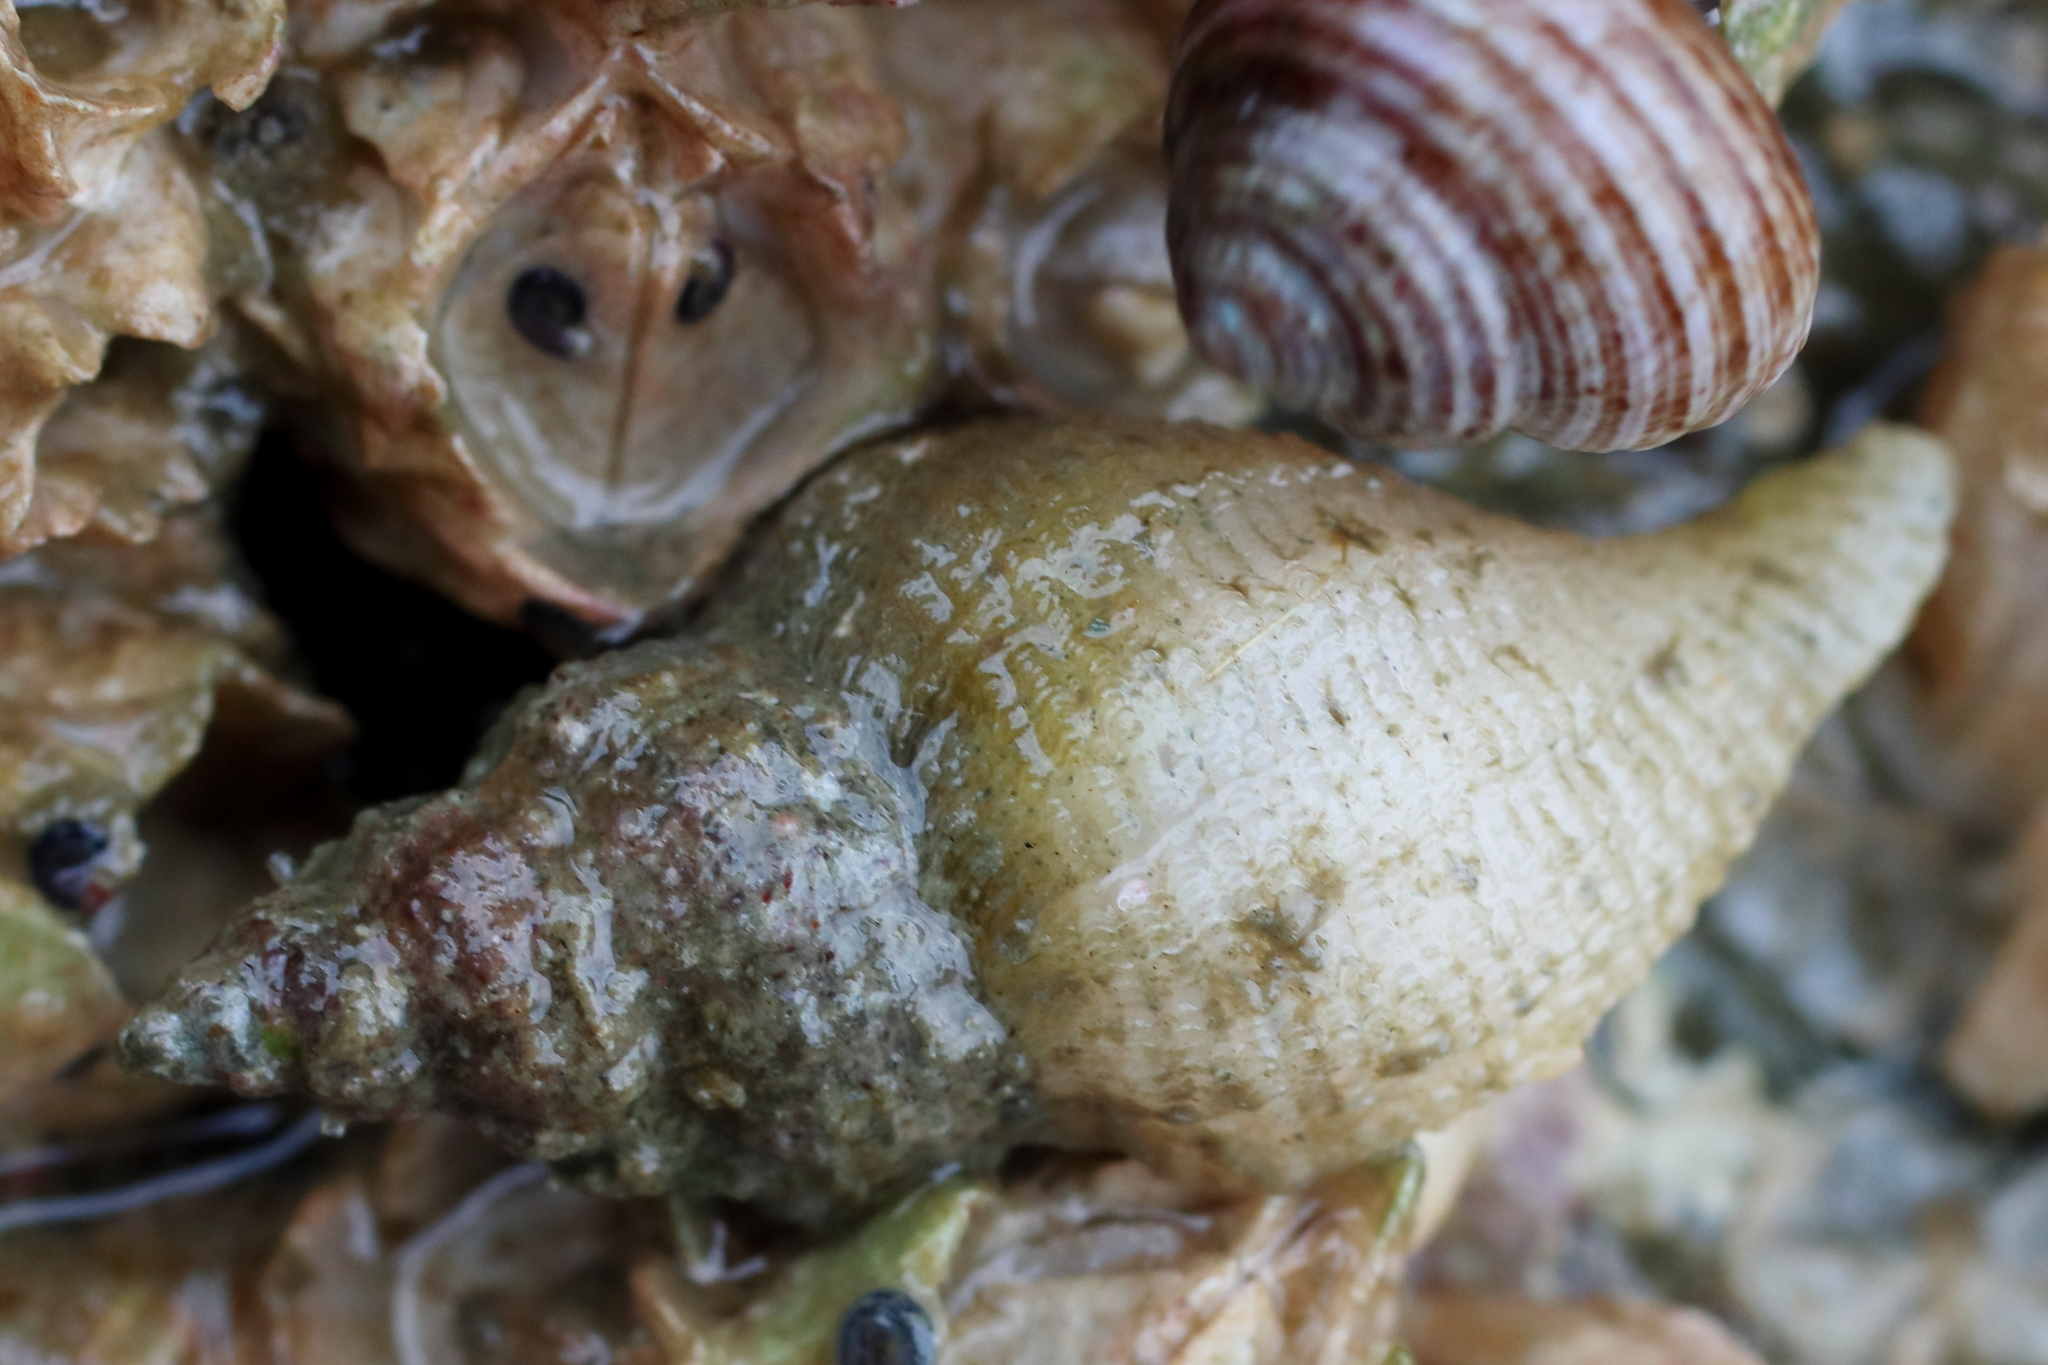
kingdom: Animalia
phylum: Mollusca
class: Gastropoda
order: Neogastropoda
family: Muricidae
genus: Scabrotrophon
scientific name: Scabrotrophon maltzani
